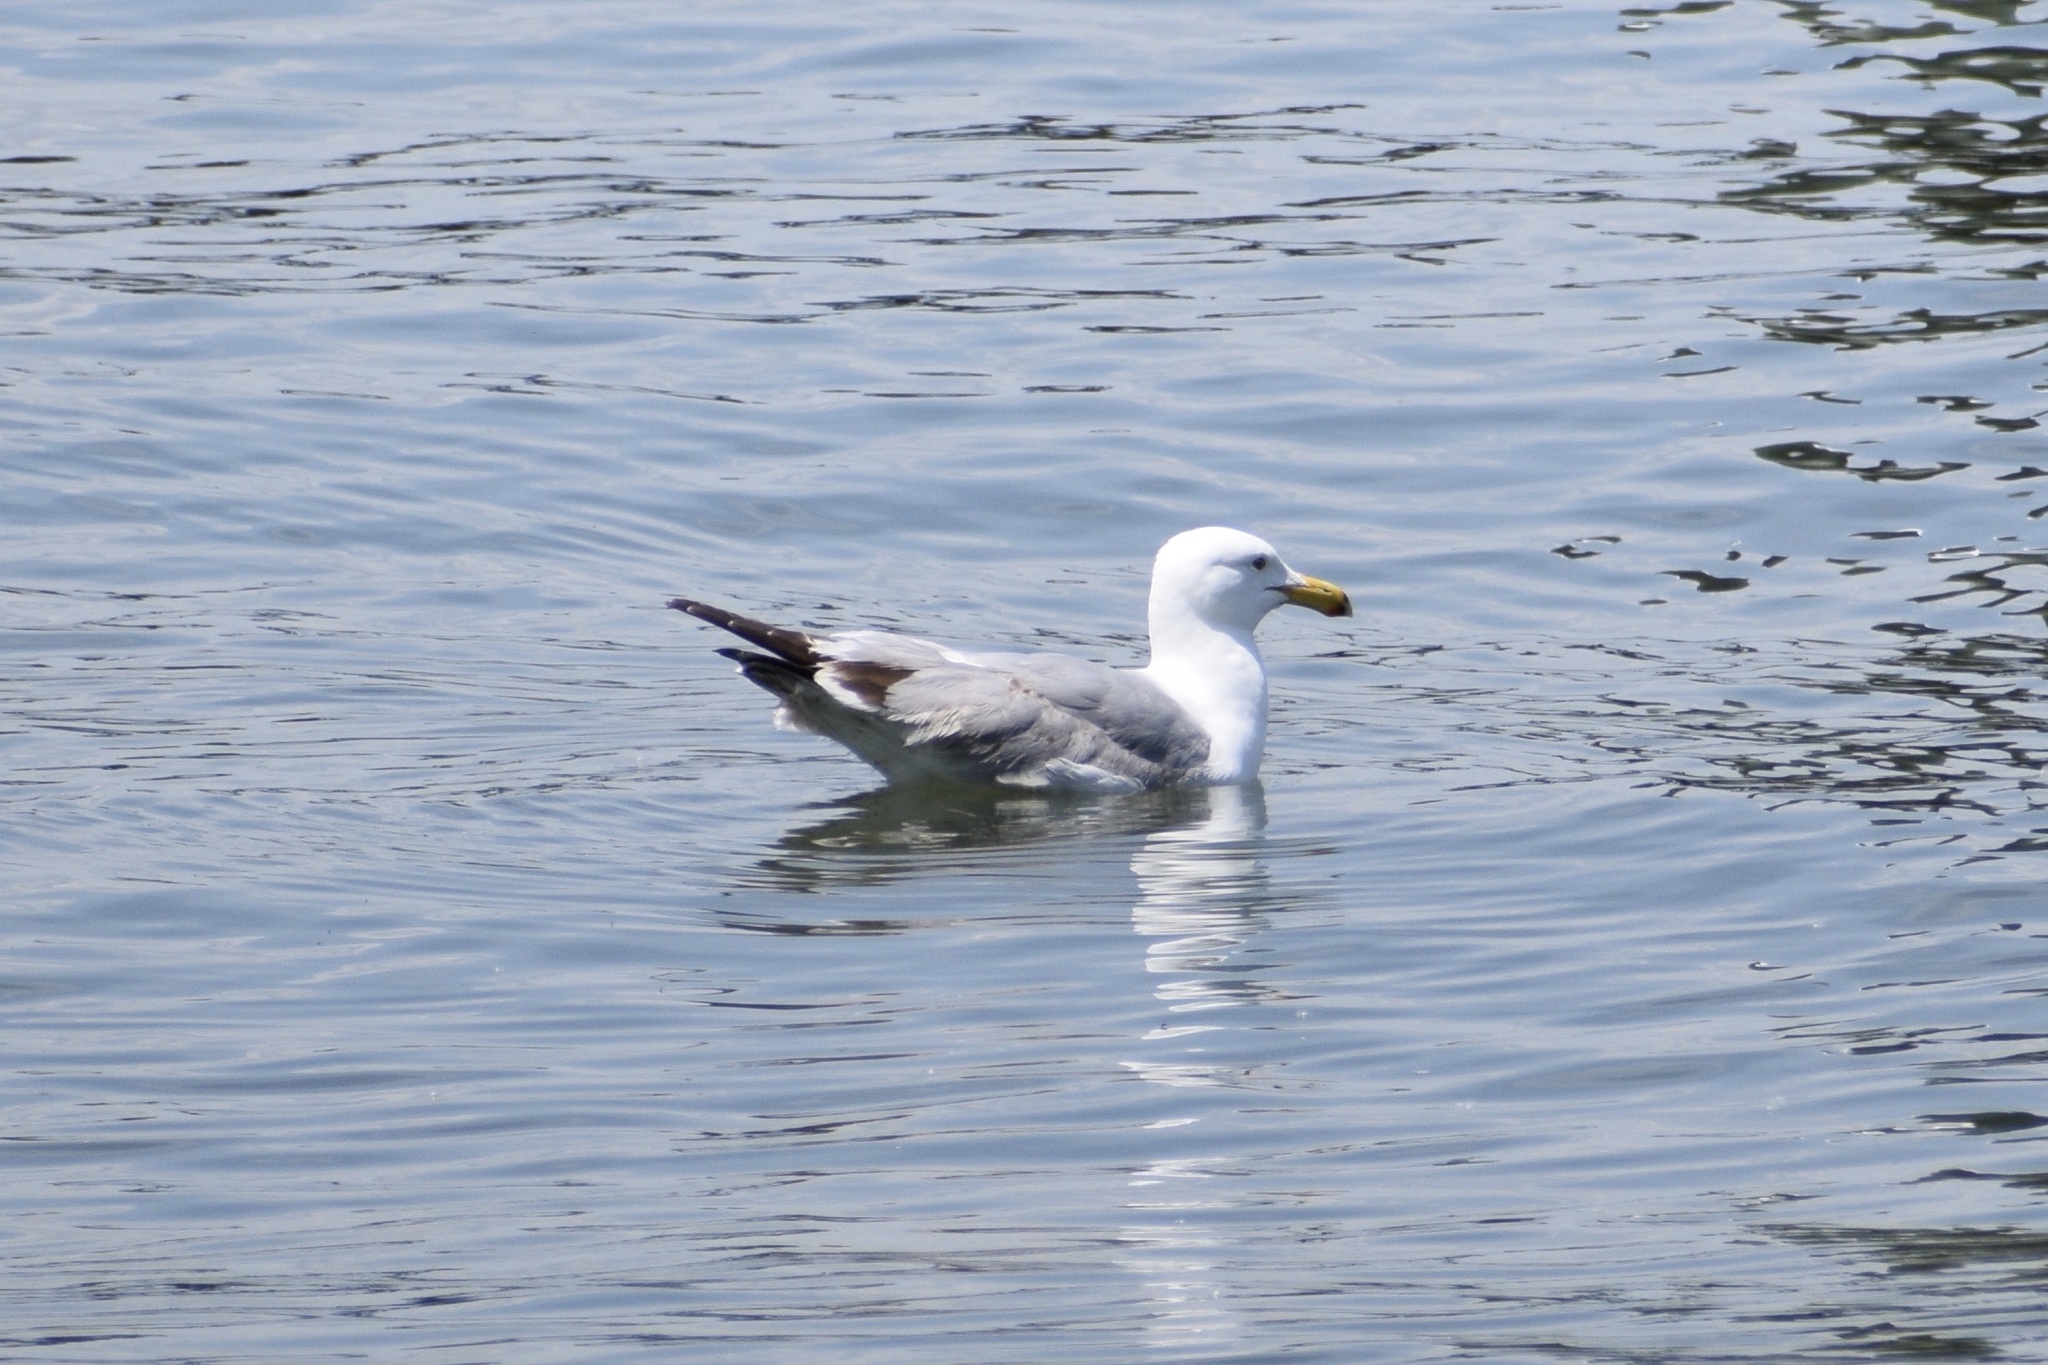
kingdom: Animalia
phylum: Chordata
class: Aves
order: Charadriiformes
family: Laridae
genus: Larus
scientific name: Larus argentatus
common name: Herring gull
